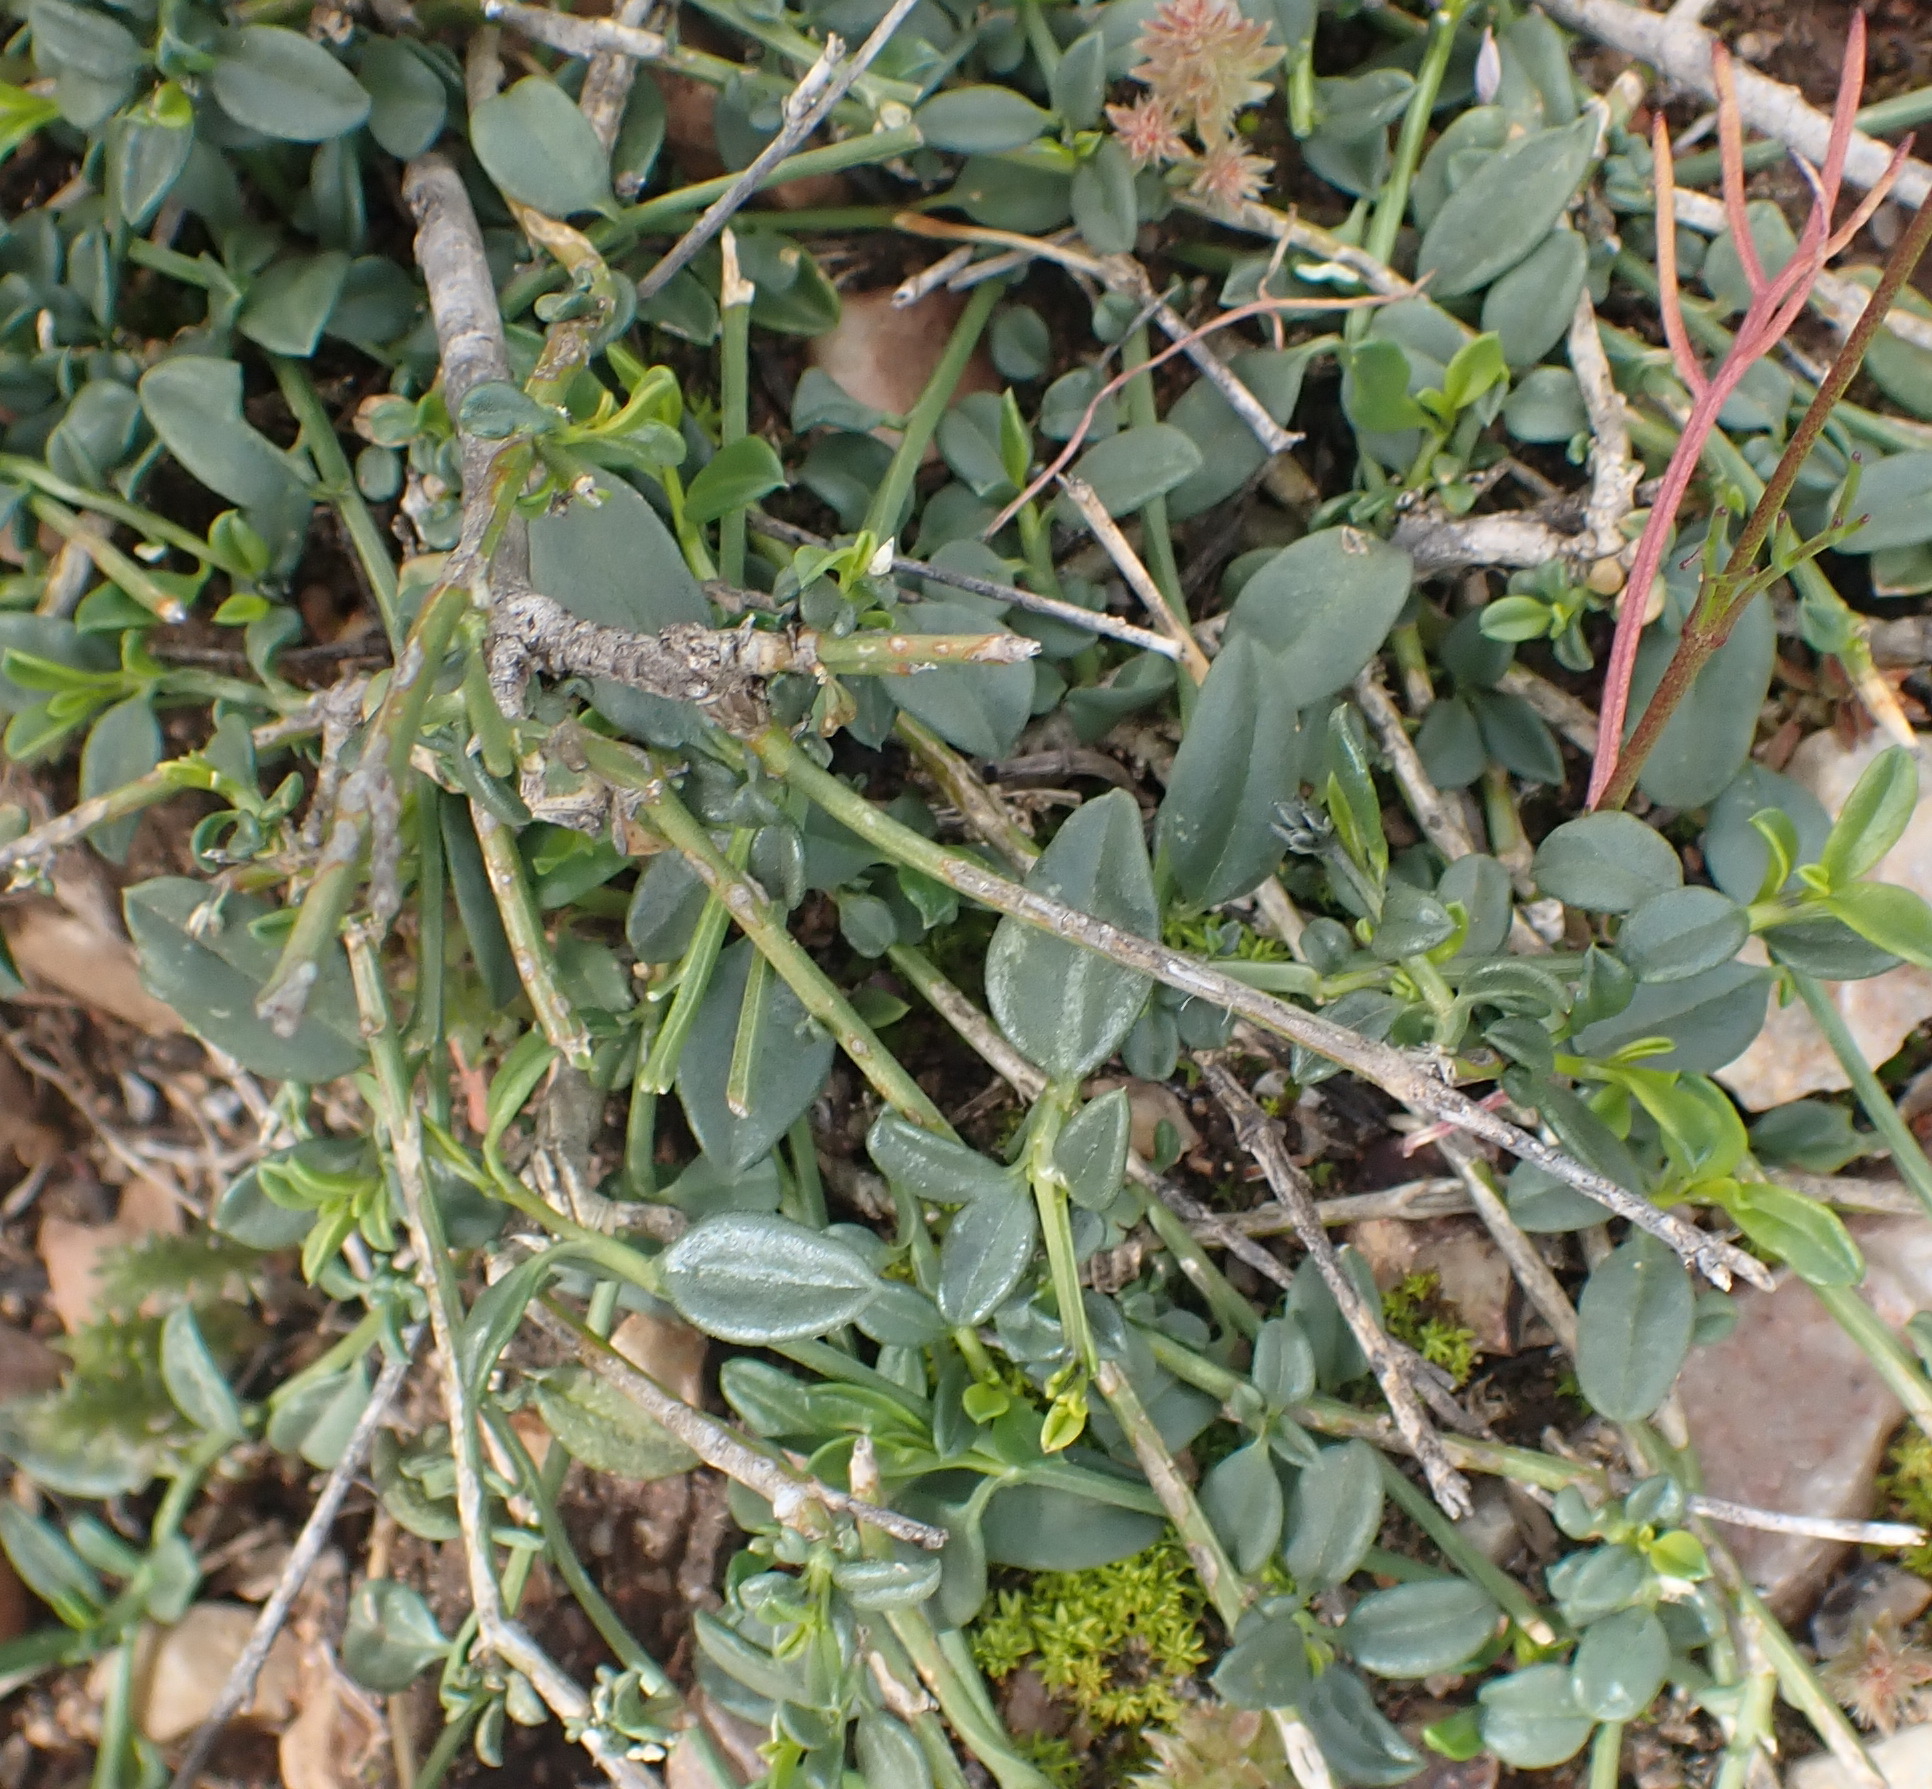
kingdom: Plantae
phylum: Tracheophyta
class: Magnoliopsida
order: Caryophyllales
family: Limeaceae
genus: Limeum
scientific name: Limeum aethiopicum
